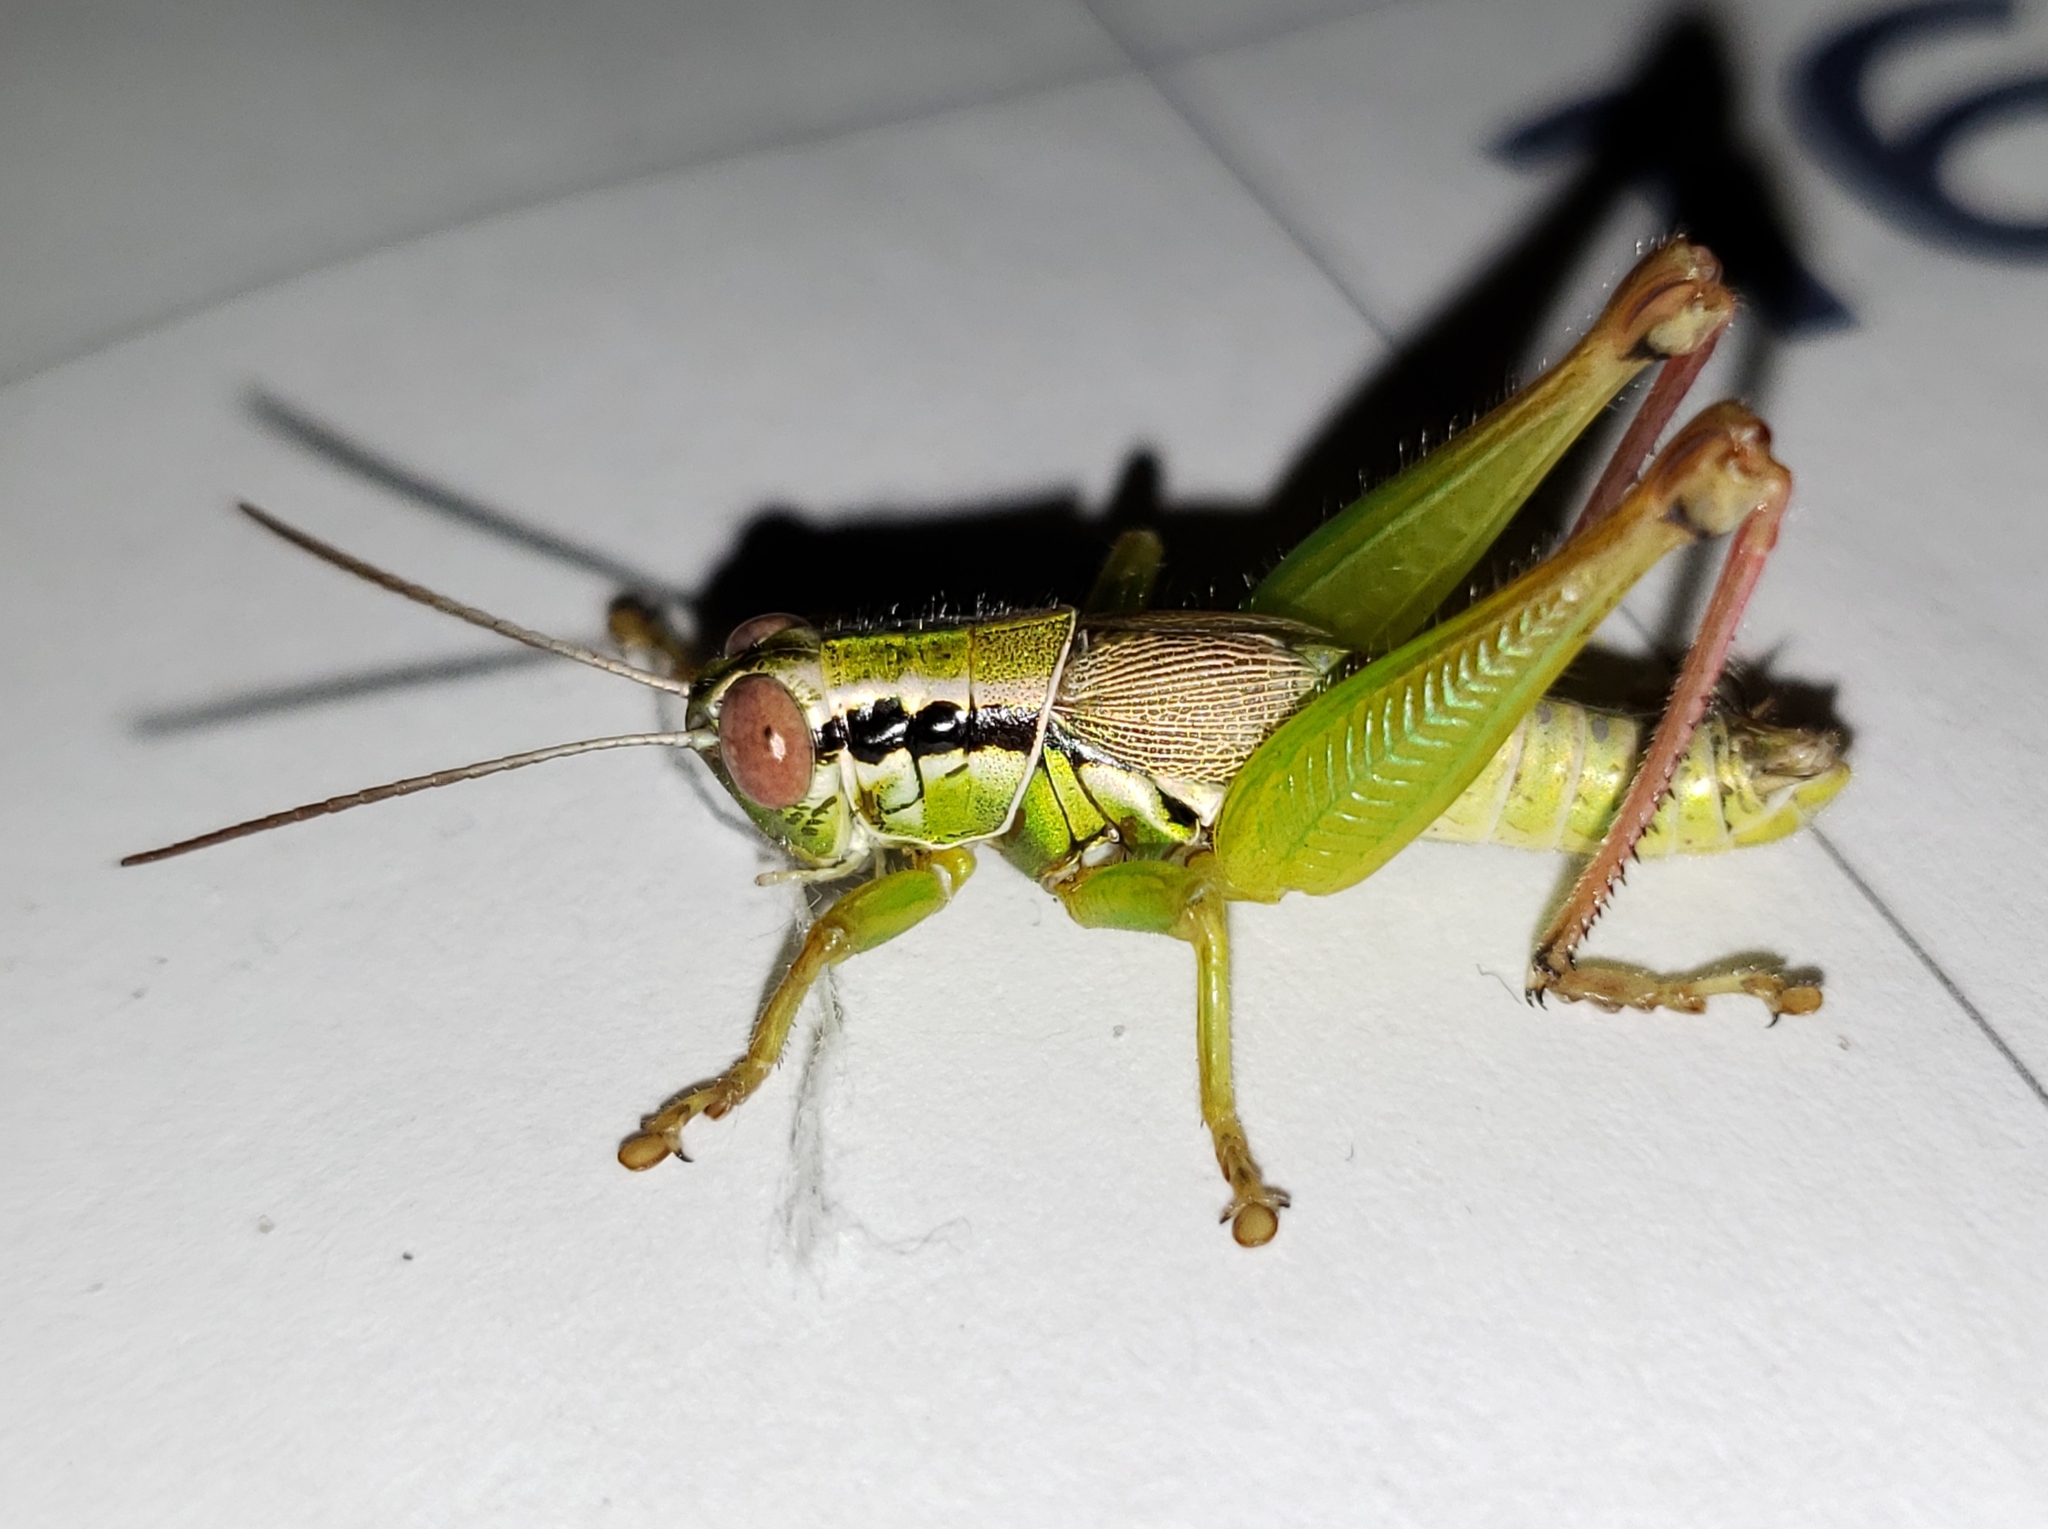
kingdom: Animalia
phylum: Arthropoda
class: Insecta
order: Orthoptera
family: Acrididae
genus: Eotettix
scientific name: Eotettix signatus
